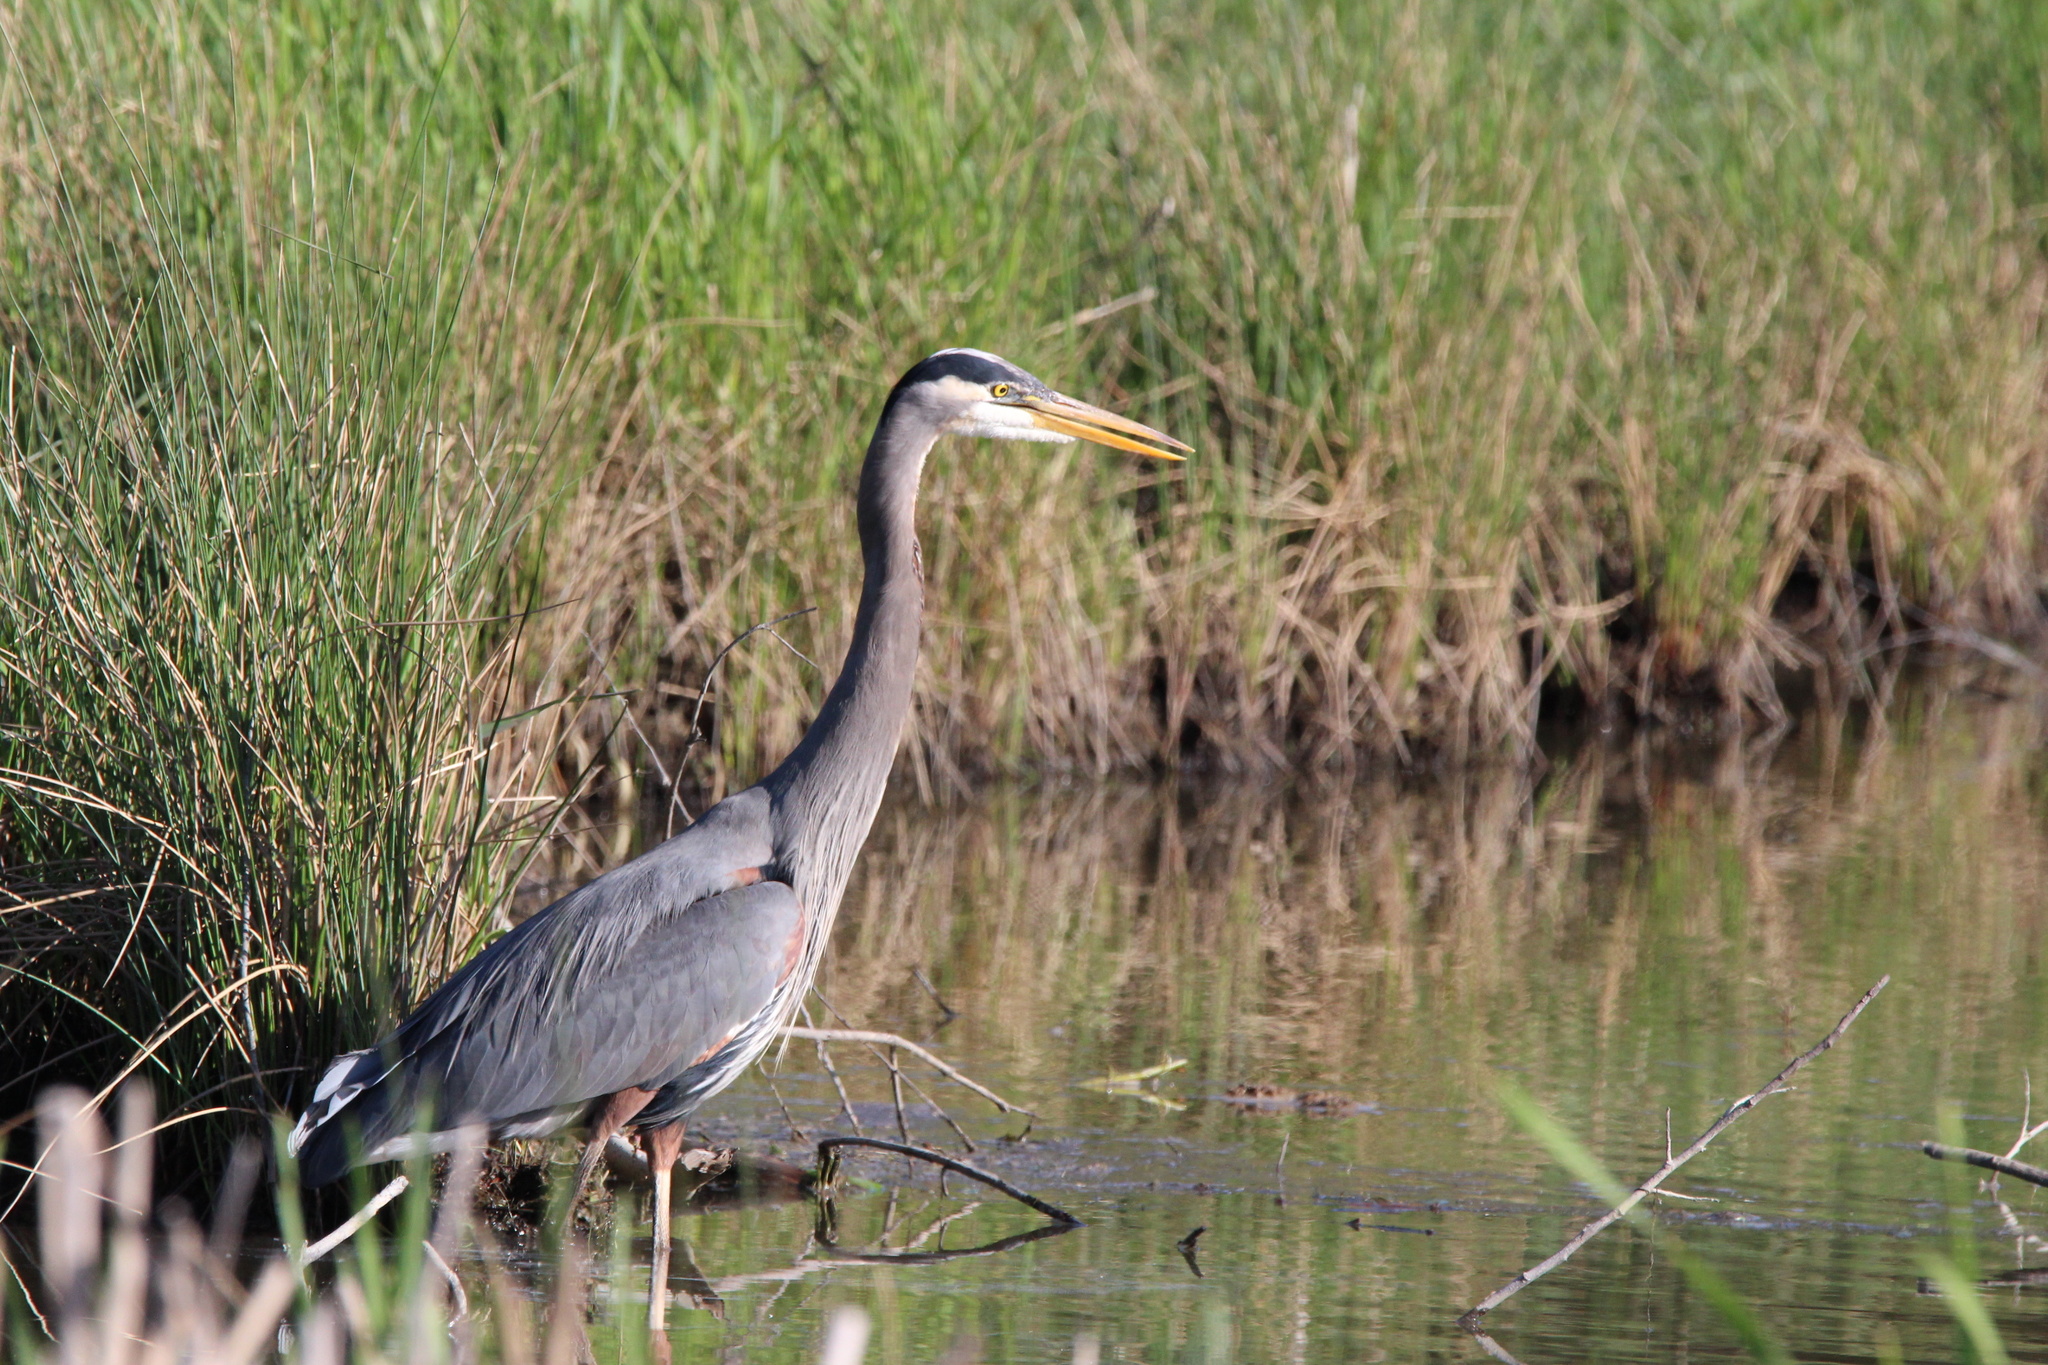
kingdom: Animalia
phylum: Chordata
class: Aves
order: Pelecaniformes
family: Ardeidae
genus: Ardea
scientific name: Ardea herodias
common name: Great blue heron
